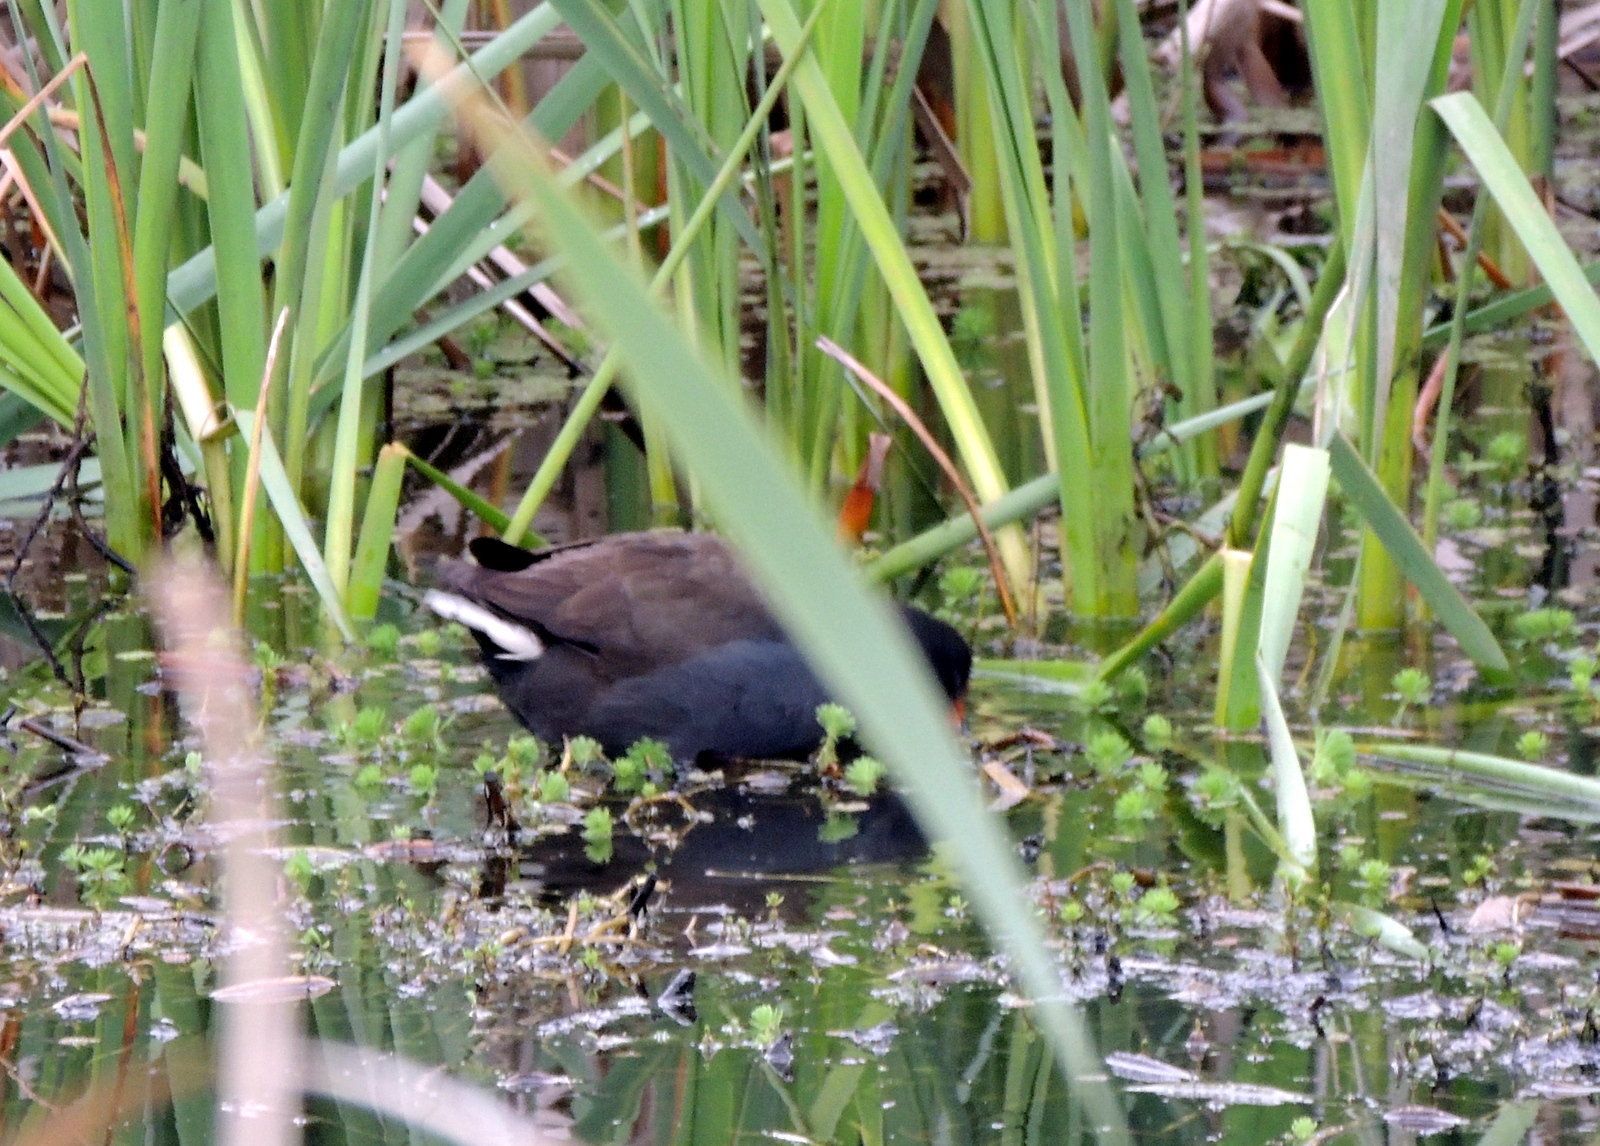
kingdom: Animalia
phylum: Chordata
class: Aves
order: Gruiformes
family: Rallidae
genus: Gallinula
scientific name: Gallinula tenebrosa
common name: Dusky moorhen
